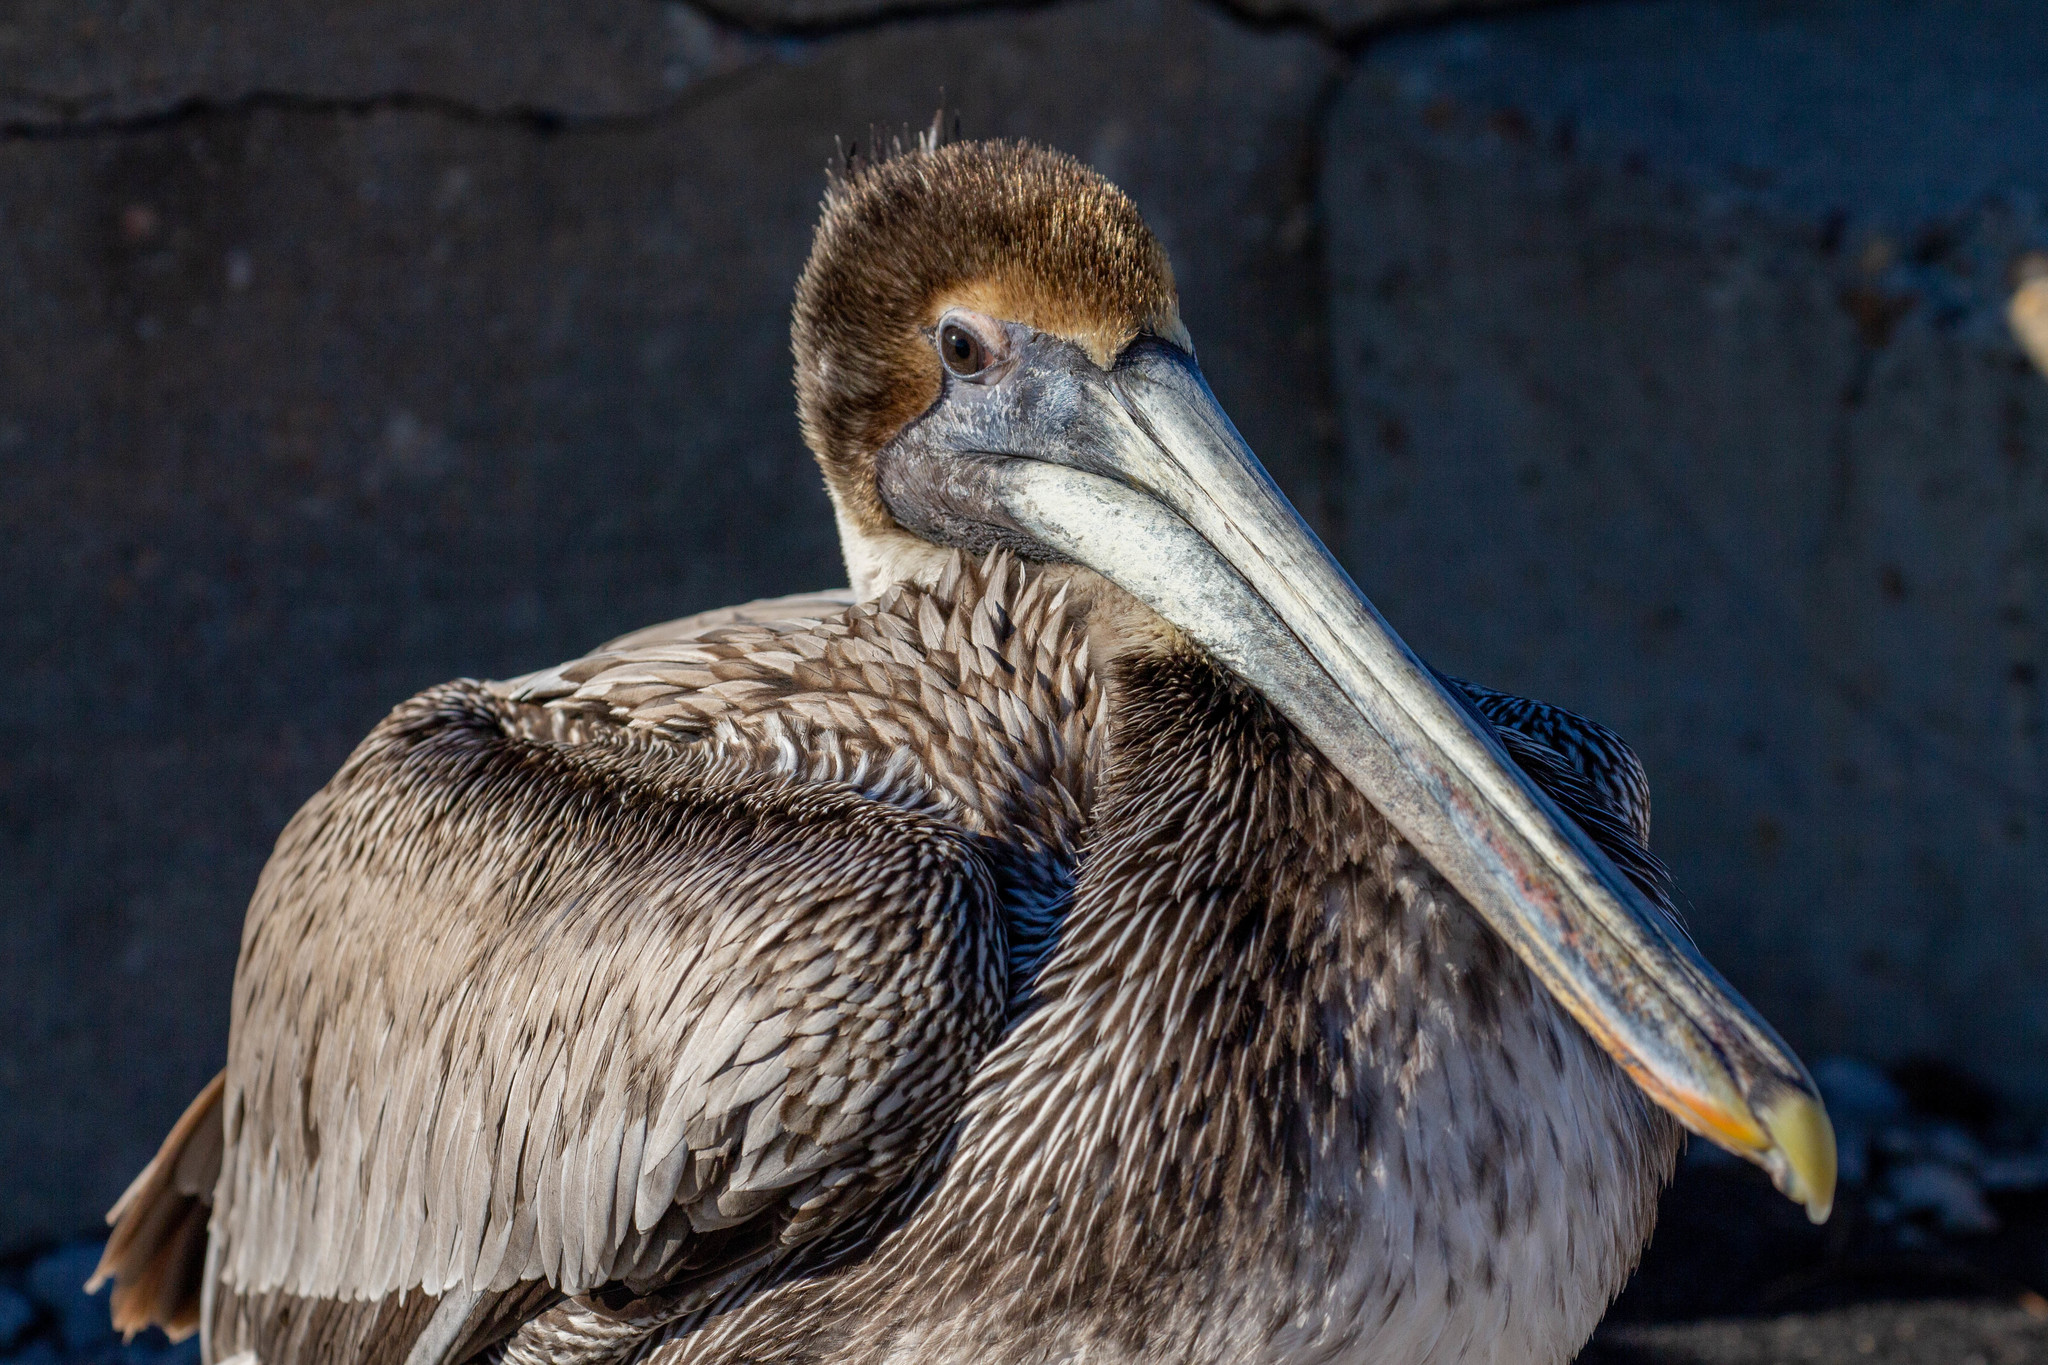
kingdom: Animalia
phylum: Chordata
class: Aves
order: Pelecaniformes
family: Pelecanidae
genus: Pelecanus
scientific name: Pelecanus occidentalis
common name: Brown pelican
